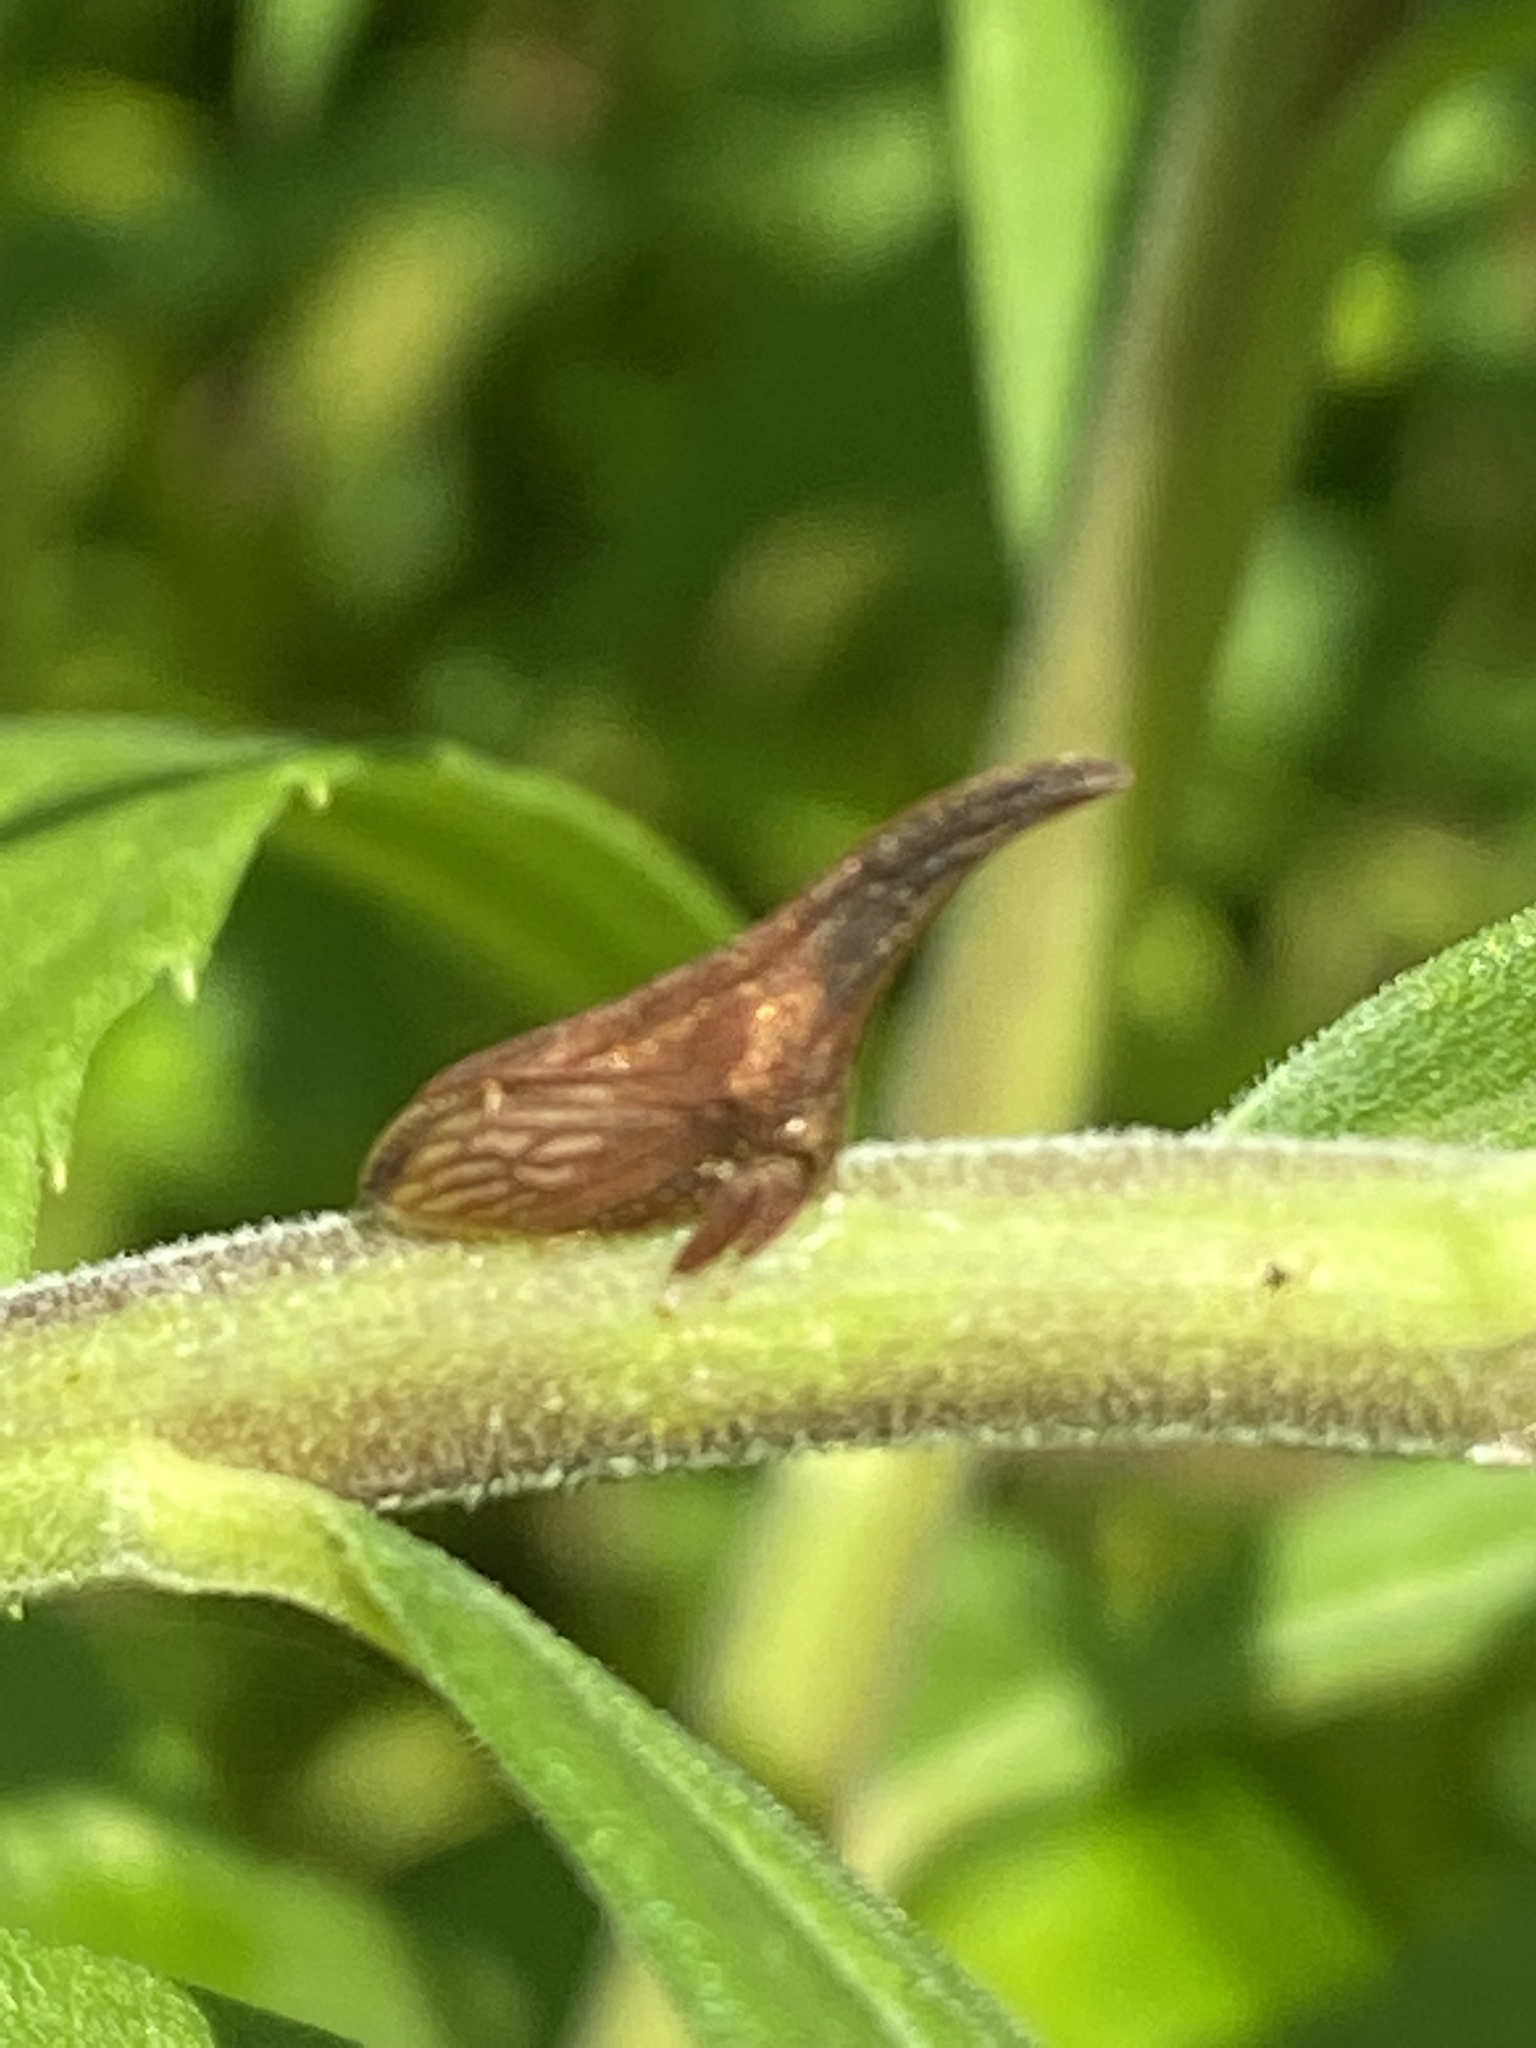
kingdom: Animalia
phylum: Arthropoda
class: Insecta
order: Hemiptera
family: Membracidae
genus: Enchenopa
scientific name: Enchenopa latipes
